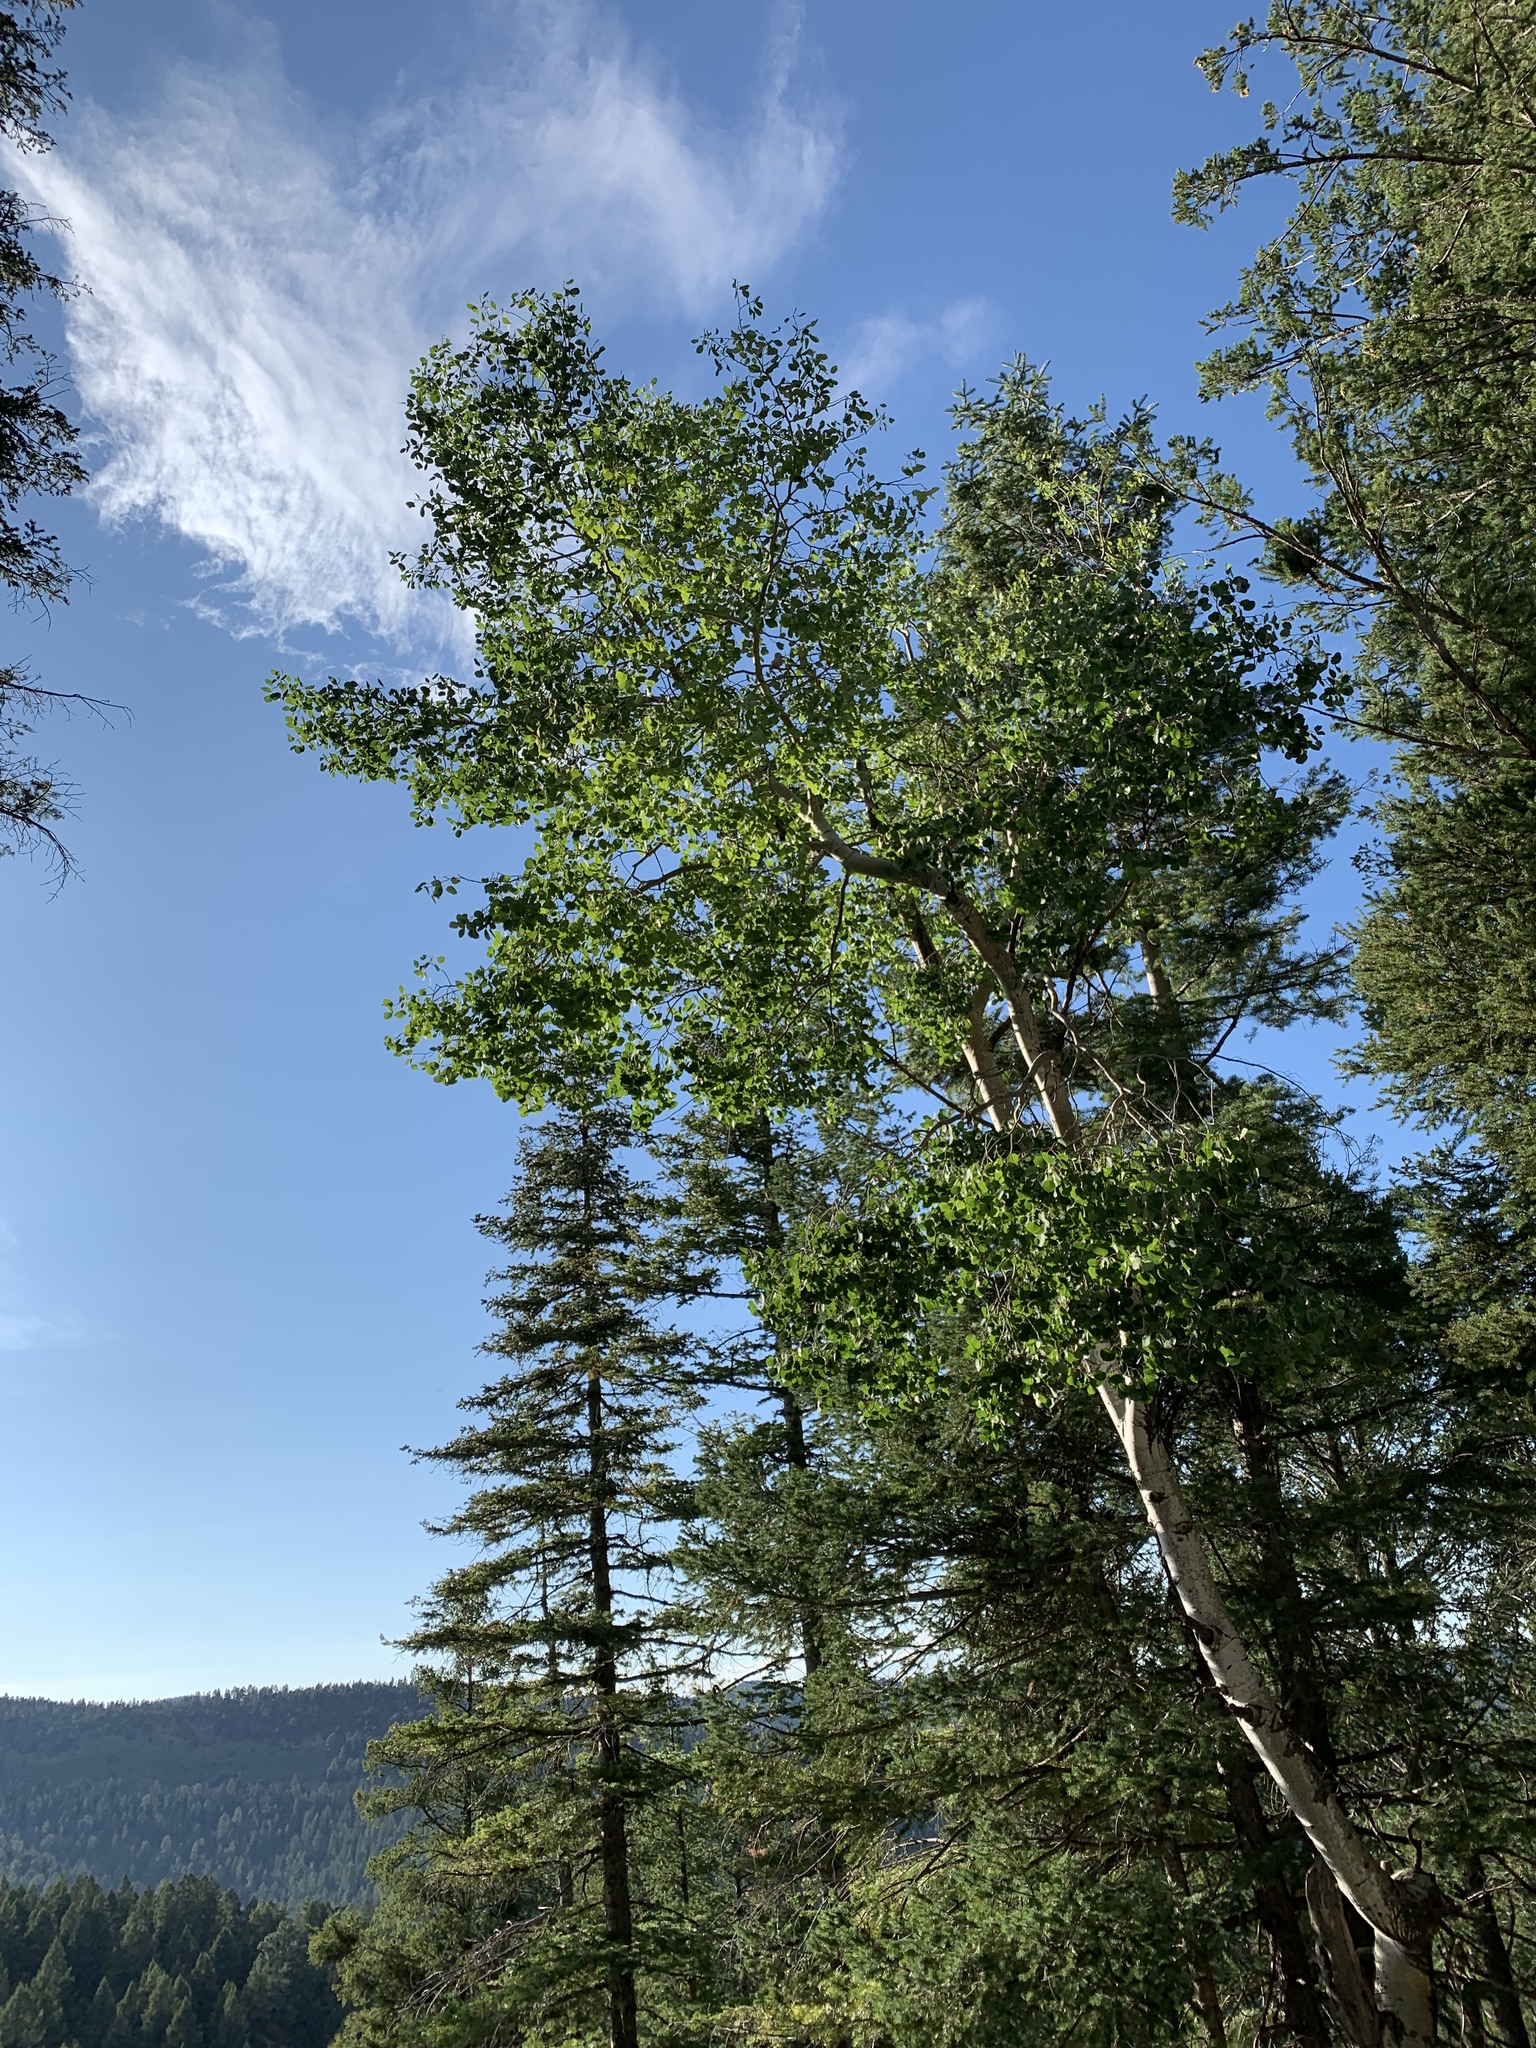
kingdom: Plantae
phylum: Tracheophyta
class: Magnoliopsida
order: Malpighiales
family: Salicaceae
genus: Populus
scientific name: Populus tremuloides
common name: Quaking aspen
